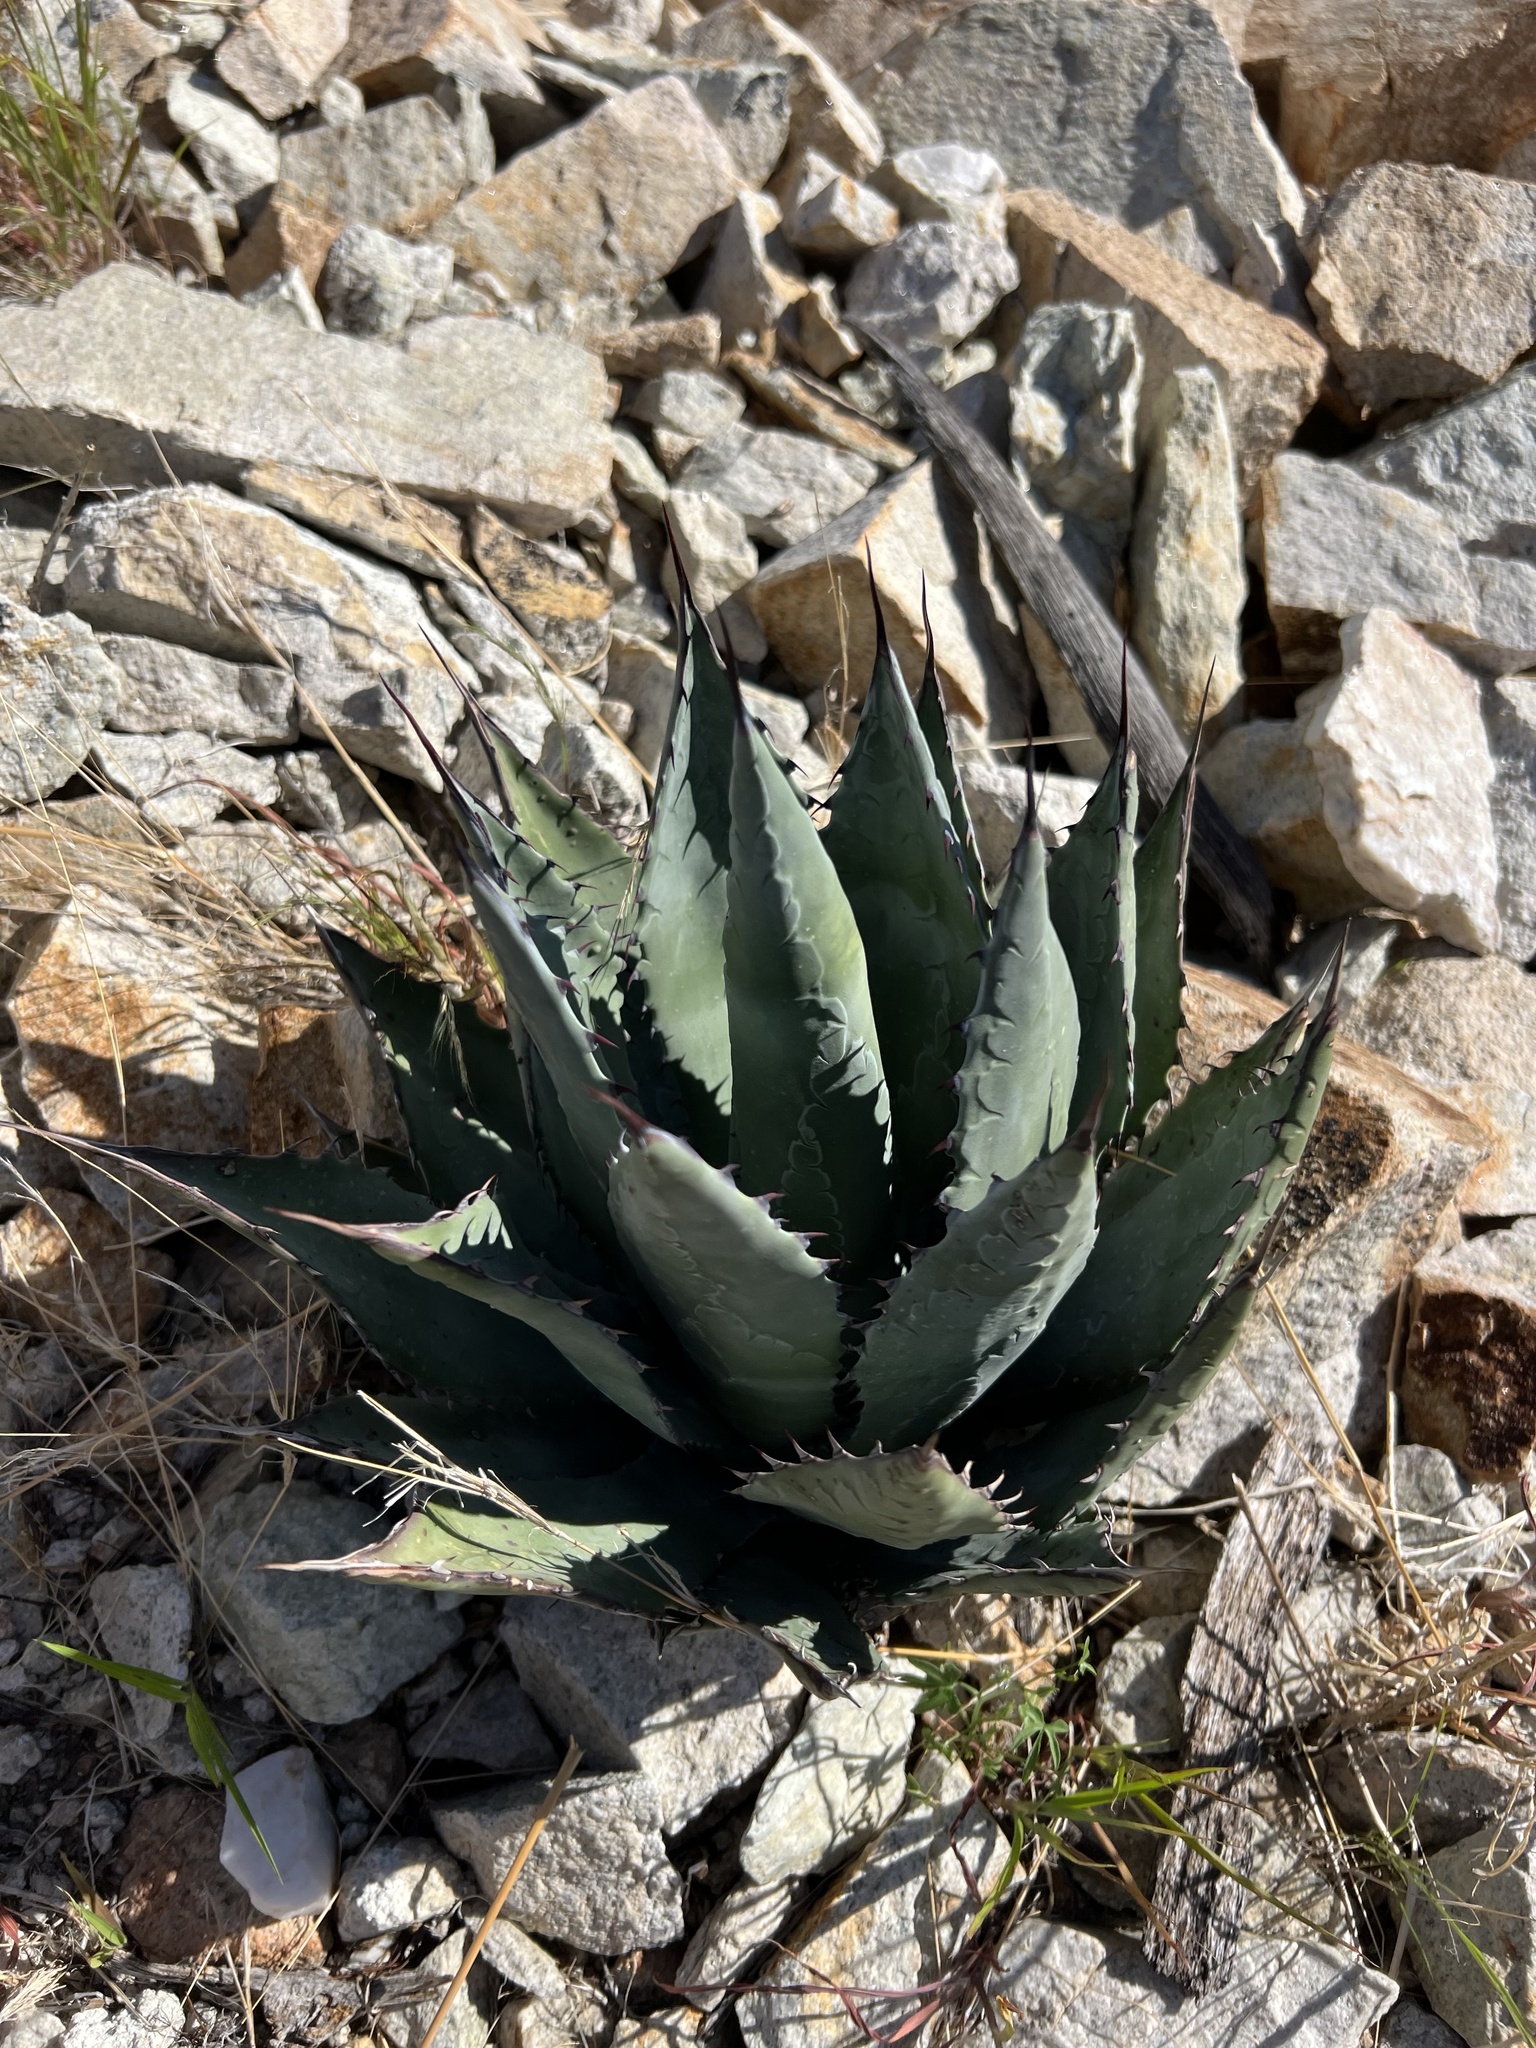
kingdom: Plantae
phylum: Tracheophyta
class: Liliopsida
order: Asparagales
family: Asparagaceae
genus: Agave
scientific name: Agave parryi
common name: Parry's agave
